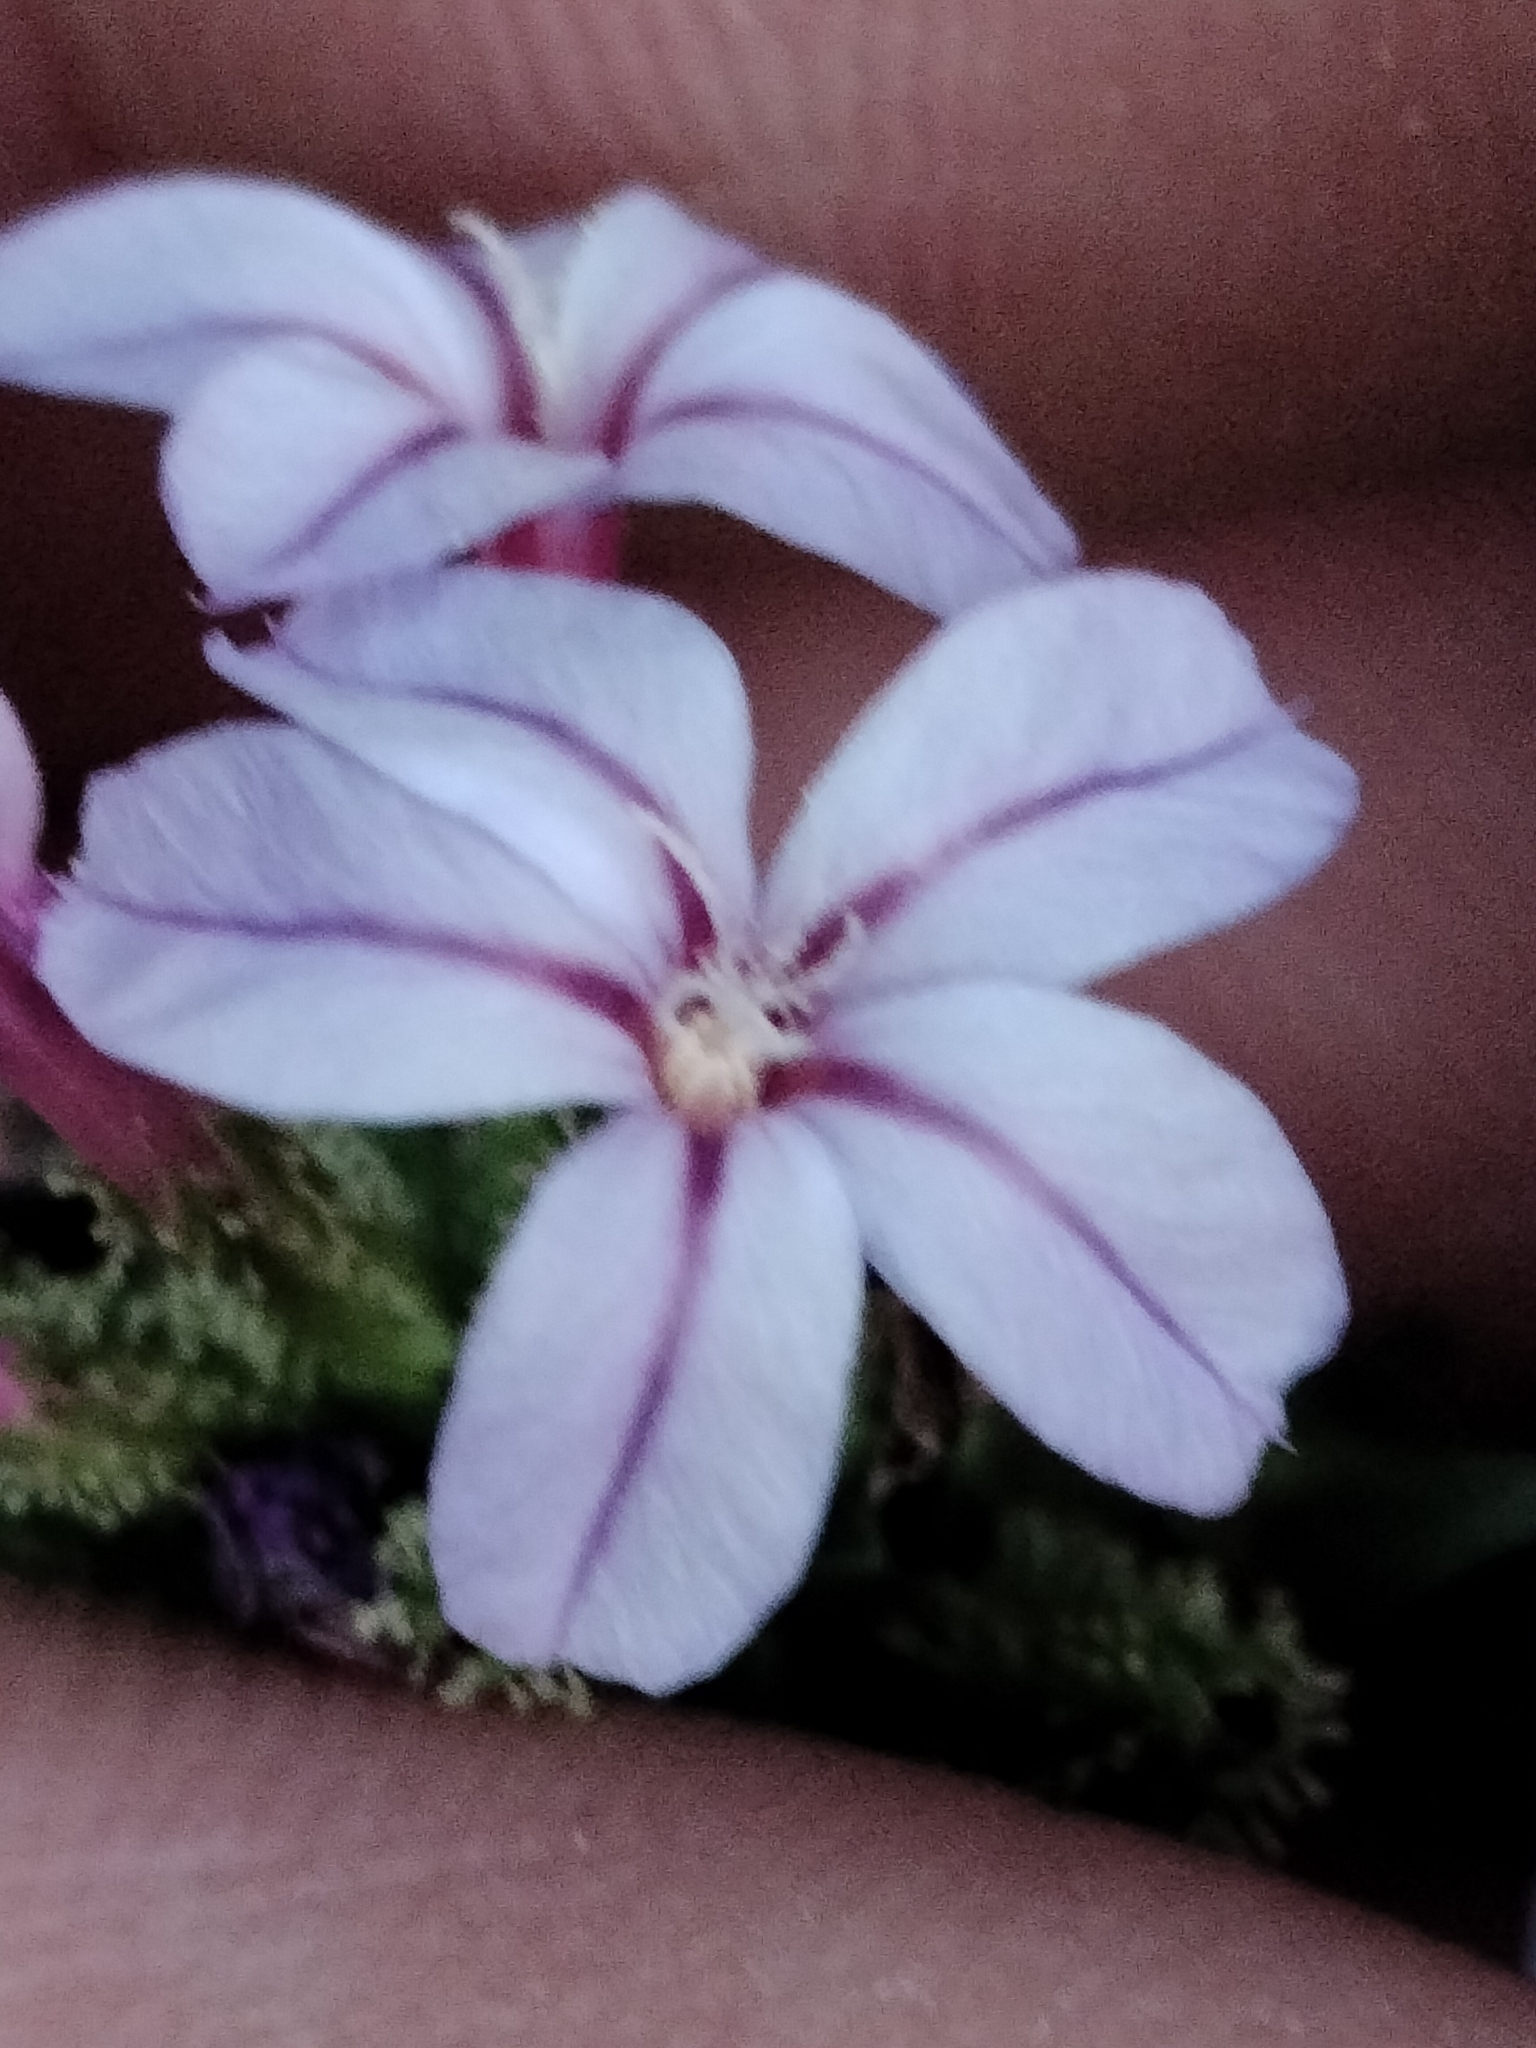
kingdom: Plantae
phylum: Tracheophyta
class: Magnoliopsida
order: Caryophyllales
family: Plumbaginaceae
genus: Plumbago
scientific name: Plumbago europaea
